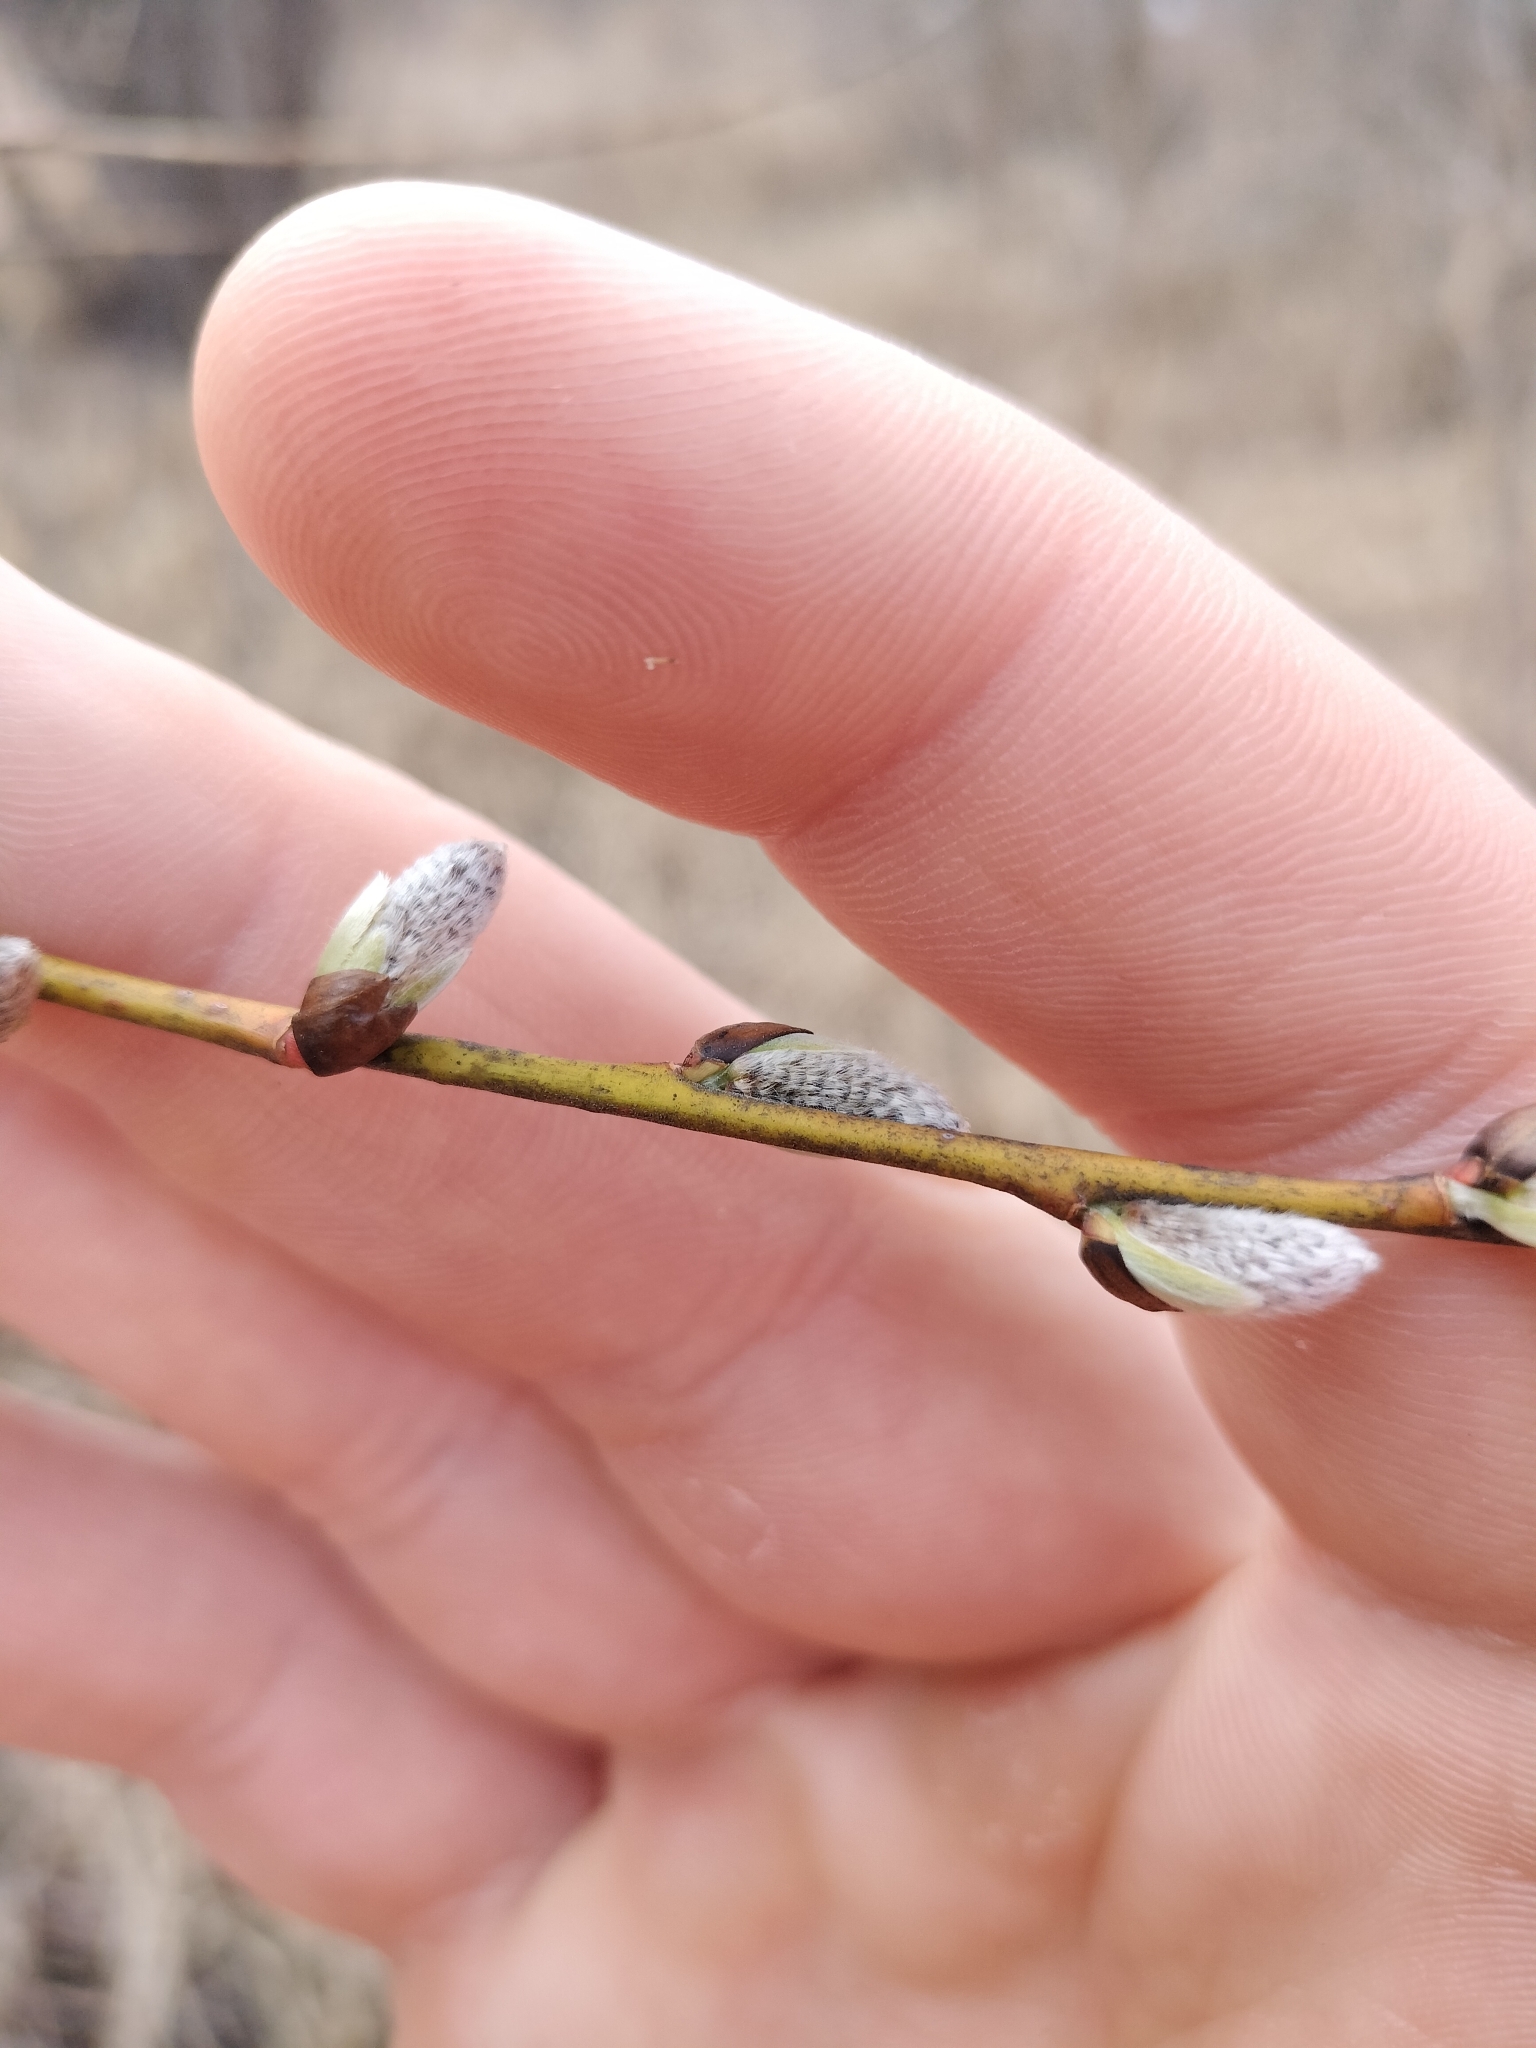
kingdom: Plantae
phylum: Tracheophyta
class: Magnoliopsida
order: Malpighiales
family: Salicaceae
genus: Salix
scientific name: Salix discolor
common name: Glaucous willow
